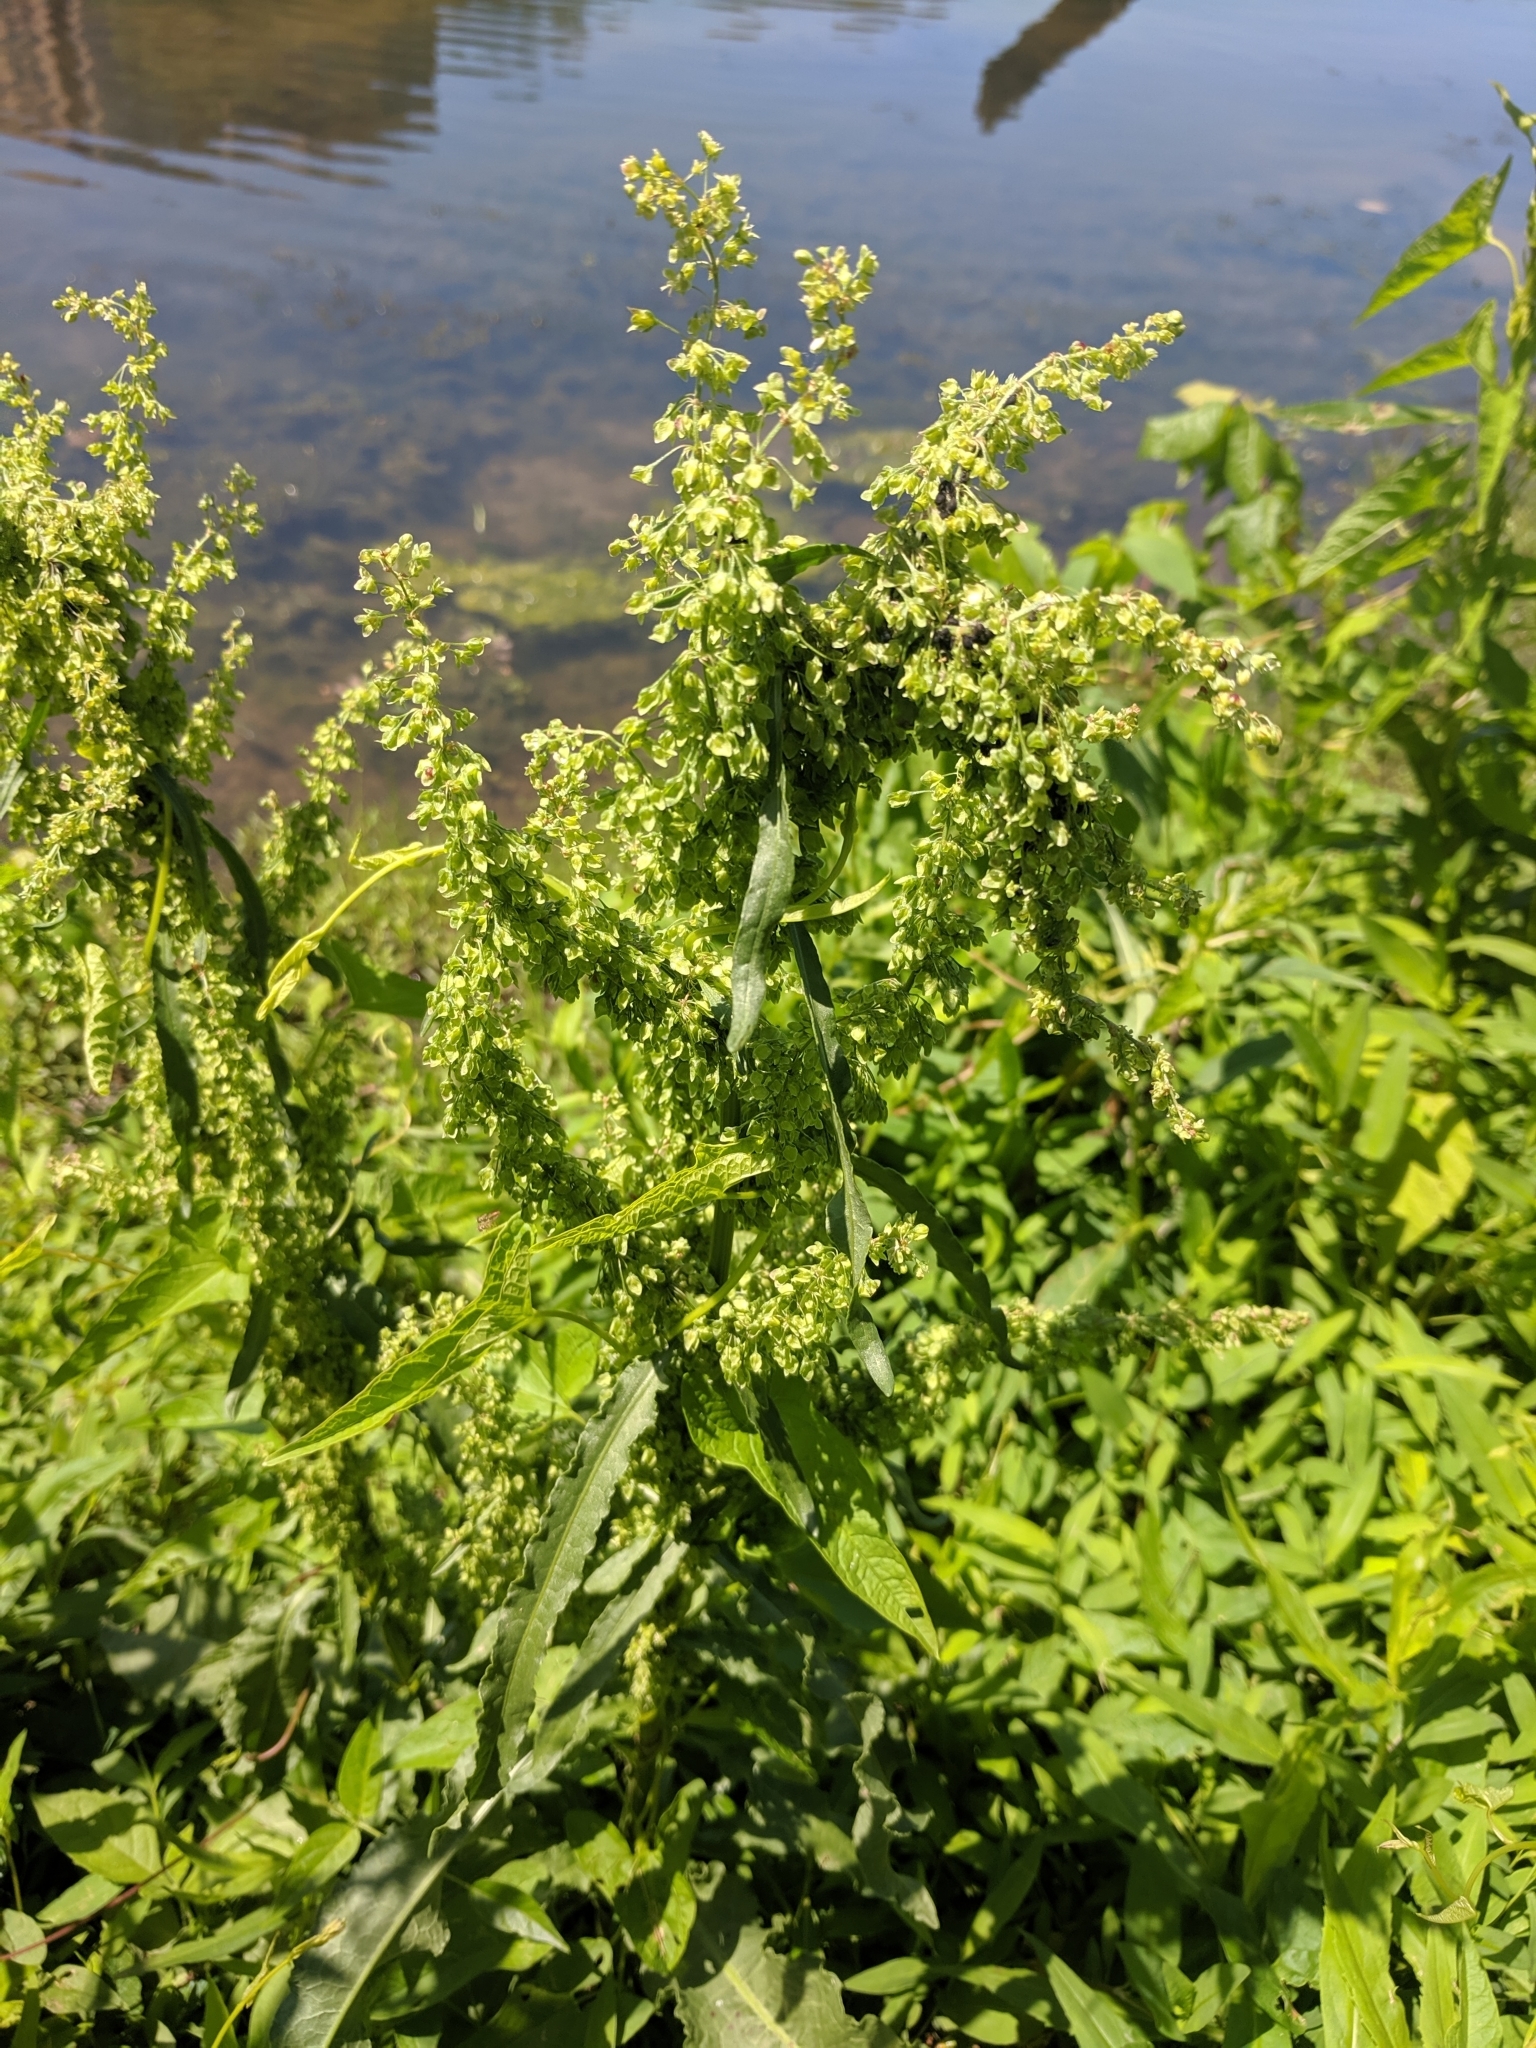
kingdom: Plantae
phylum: Tracheophyta
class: Magnoliopsida
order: Caryophyllales
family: Polygonaceae
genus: Rumex
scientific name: Rumex crispus
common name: Curled dock
